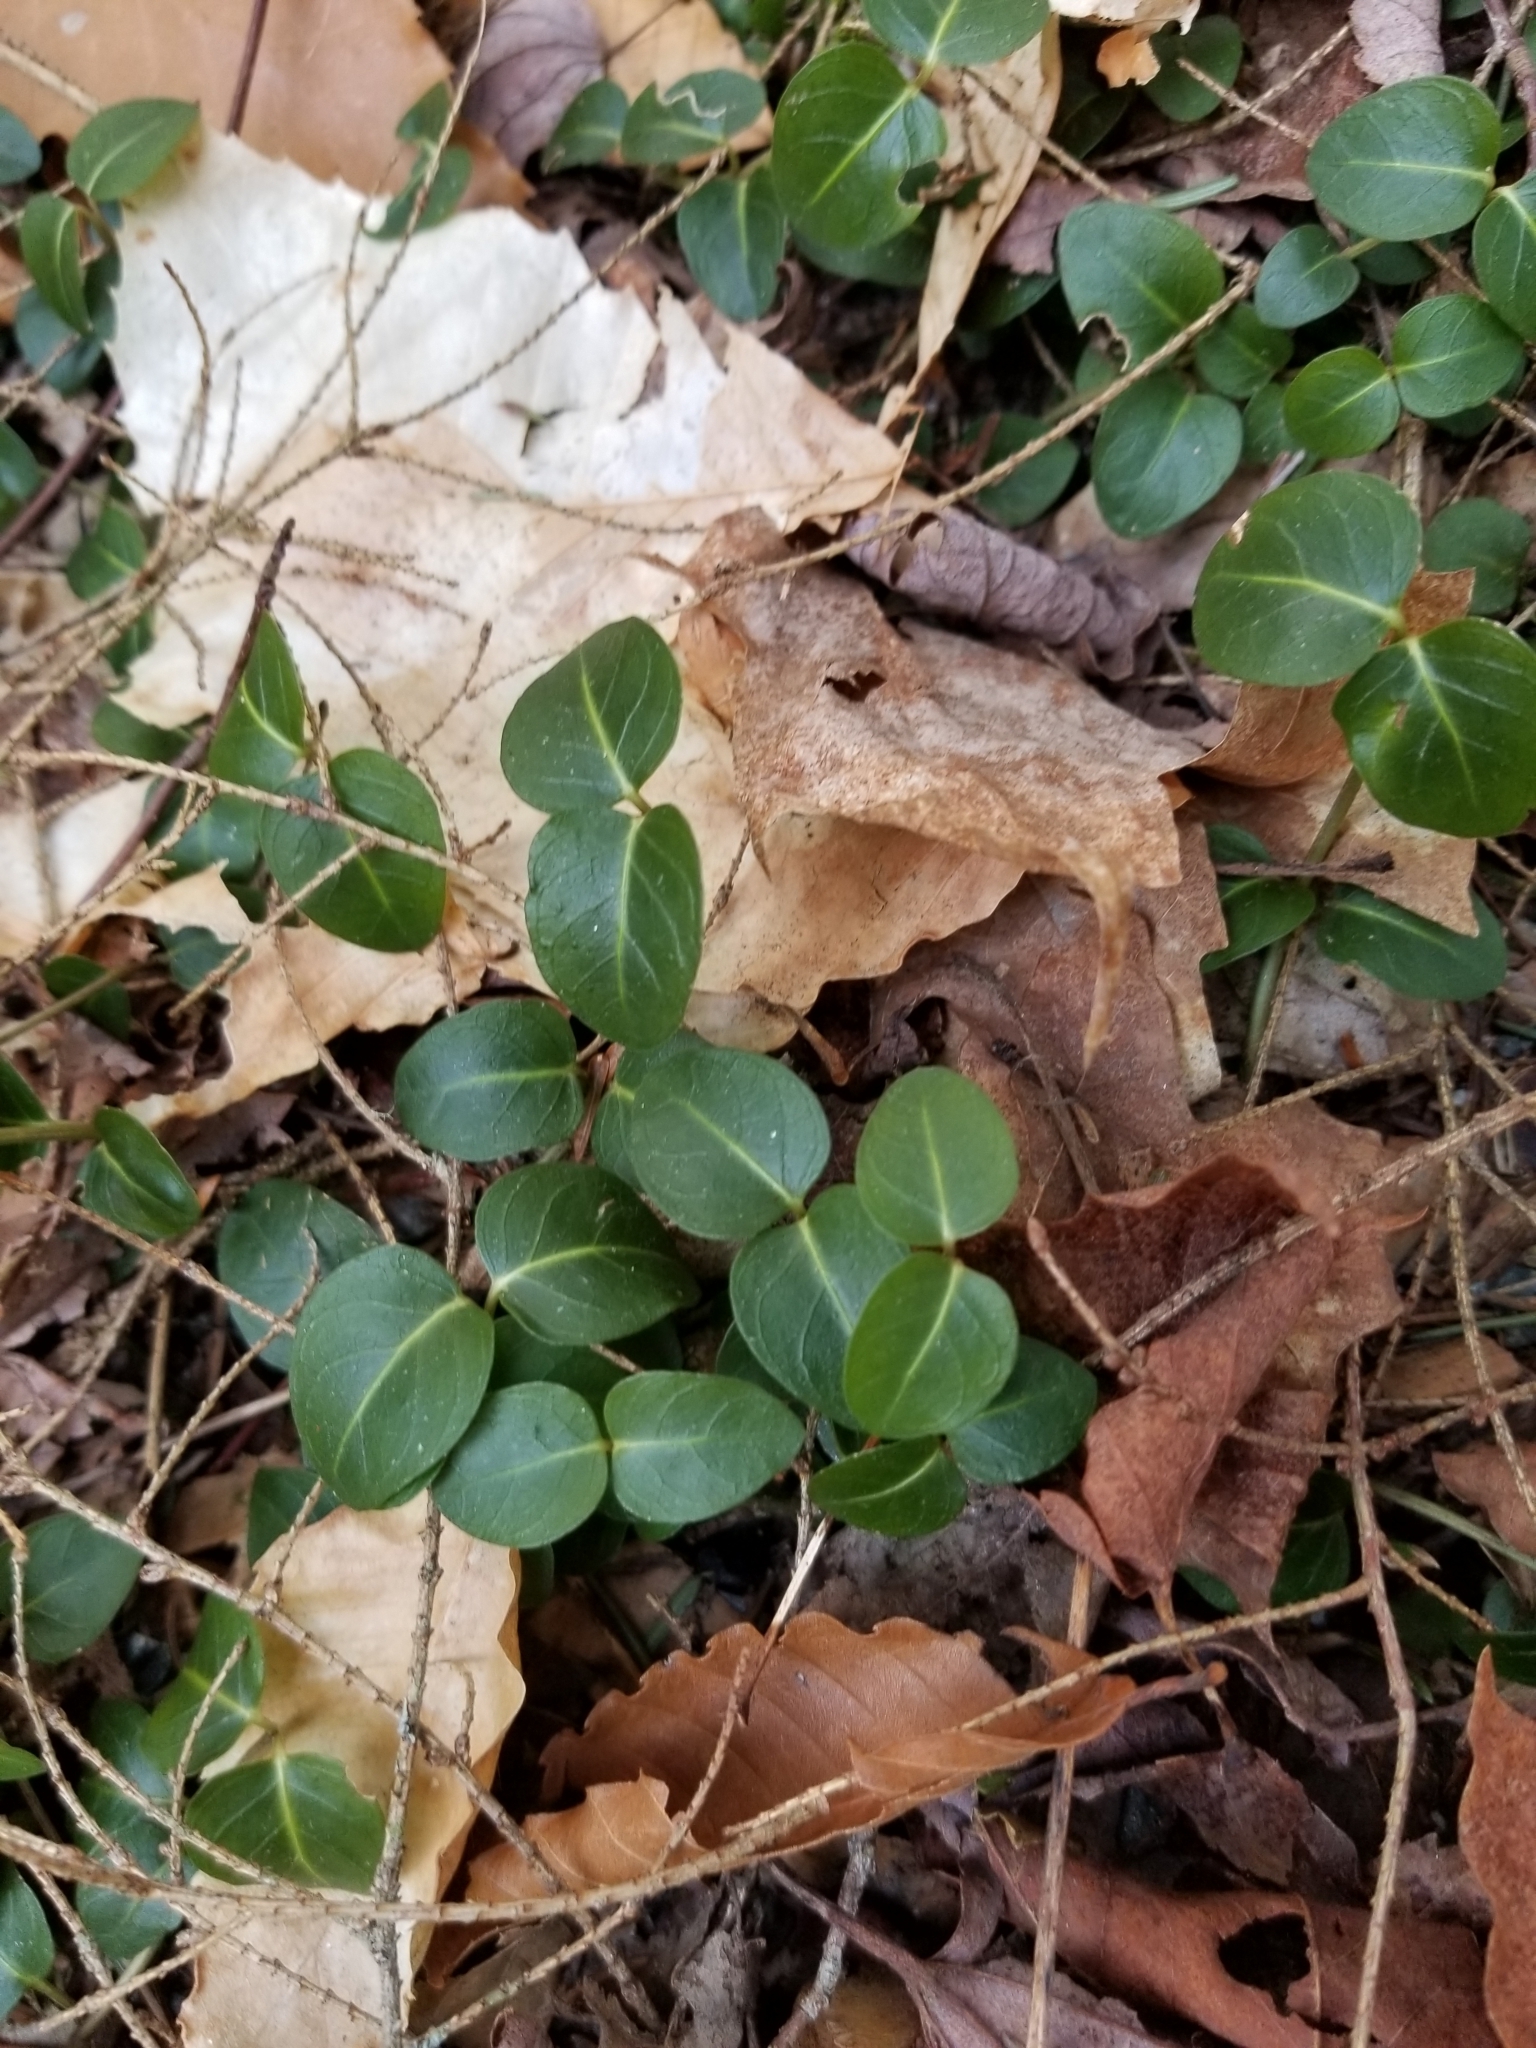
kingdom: Plantae
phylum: Tracheophyta
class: Magnoliopsida
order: Gentianales
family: Rubiaceae
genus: Mitchella
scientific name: Mitchella repens
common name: Partridge-berry
